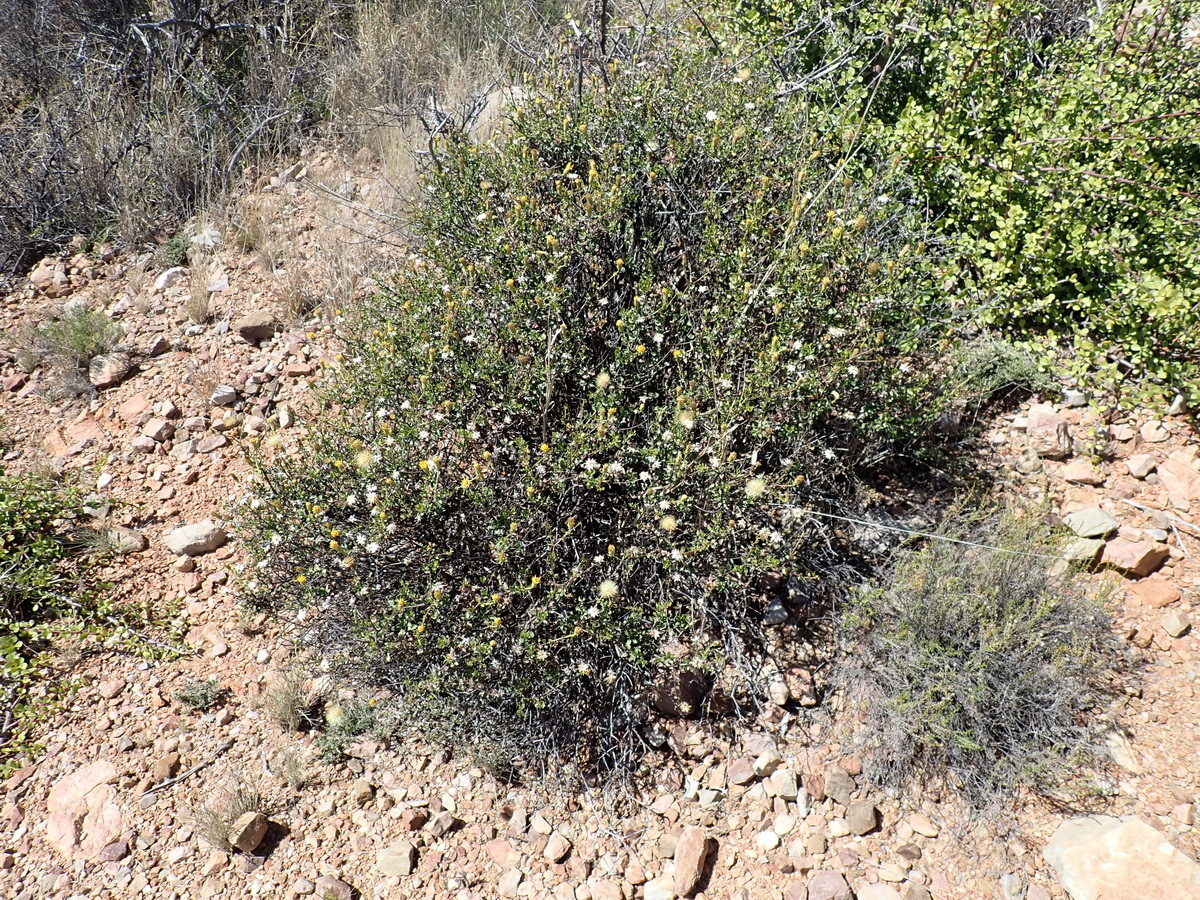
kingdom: Plantae
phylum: Tracheophyta
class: Magnoliopsida
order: Asterales
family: Asteraceae
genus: Pegolettia
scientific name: Pegolettia baccaridifolia
